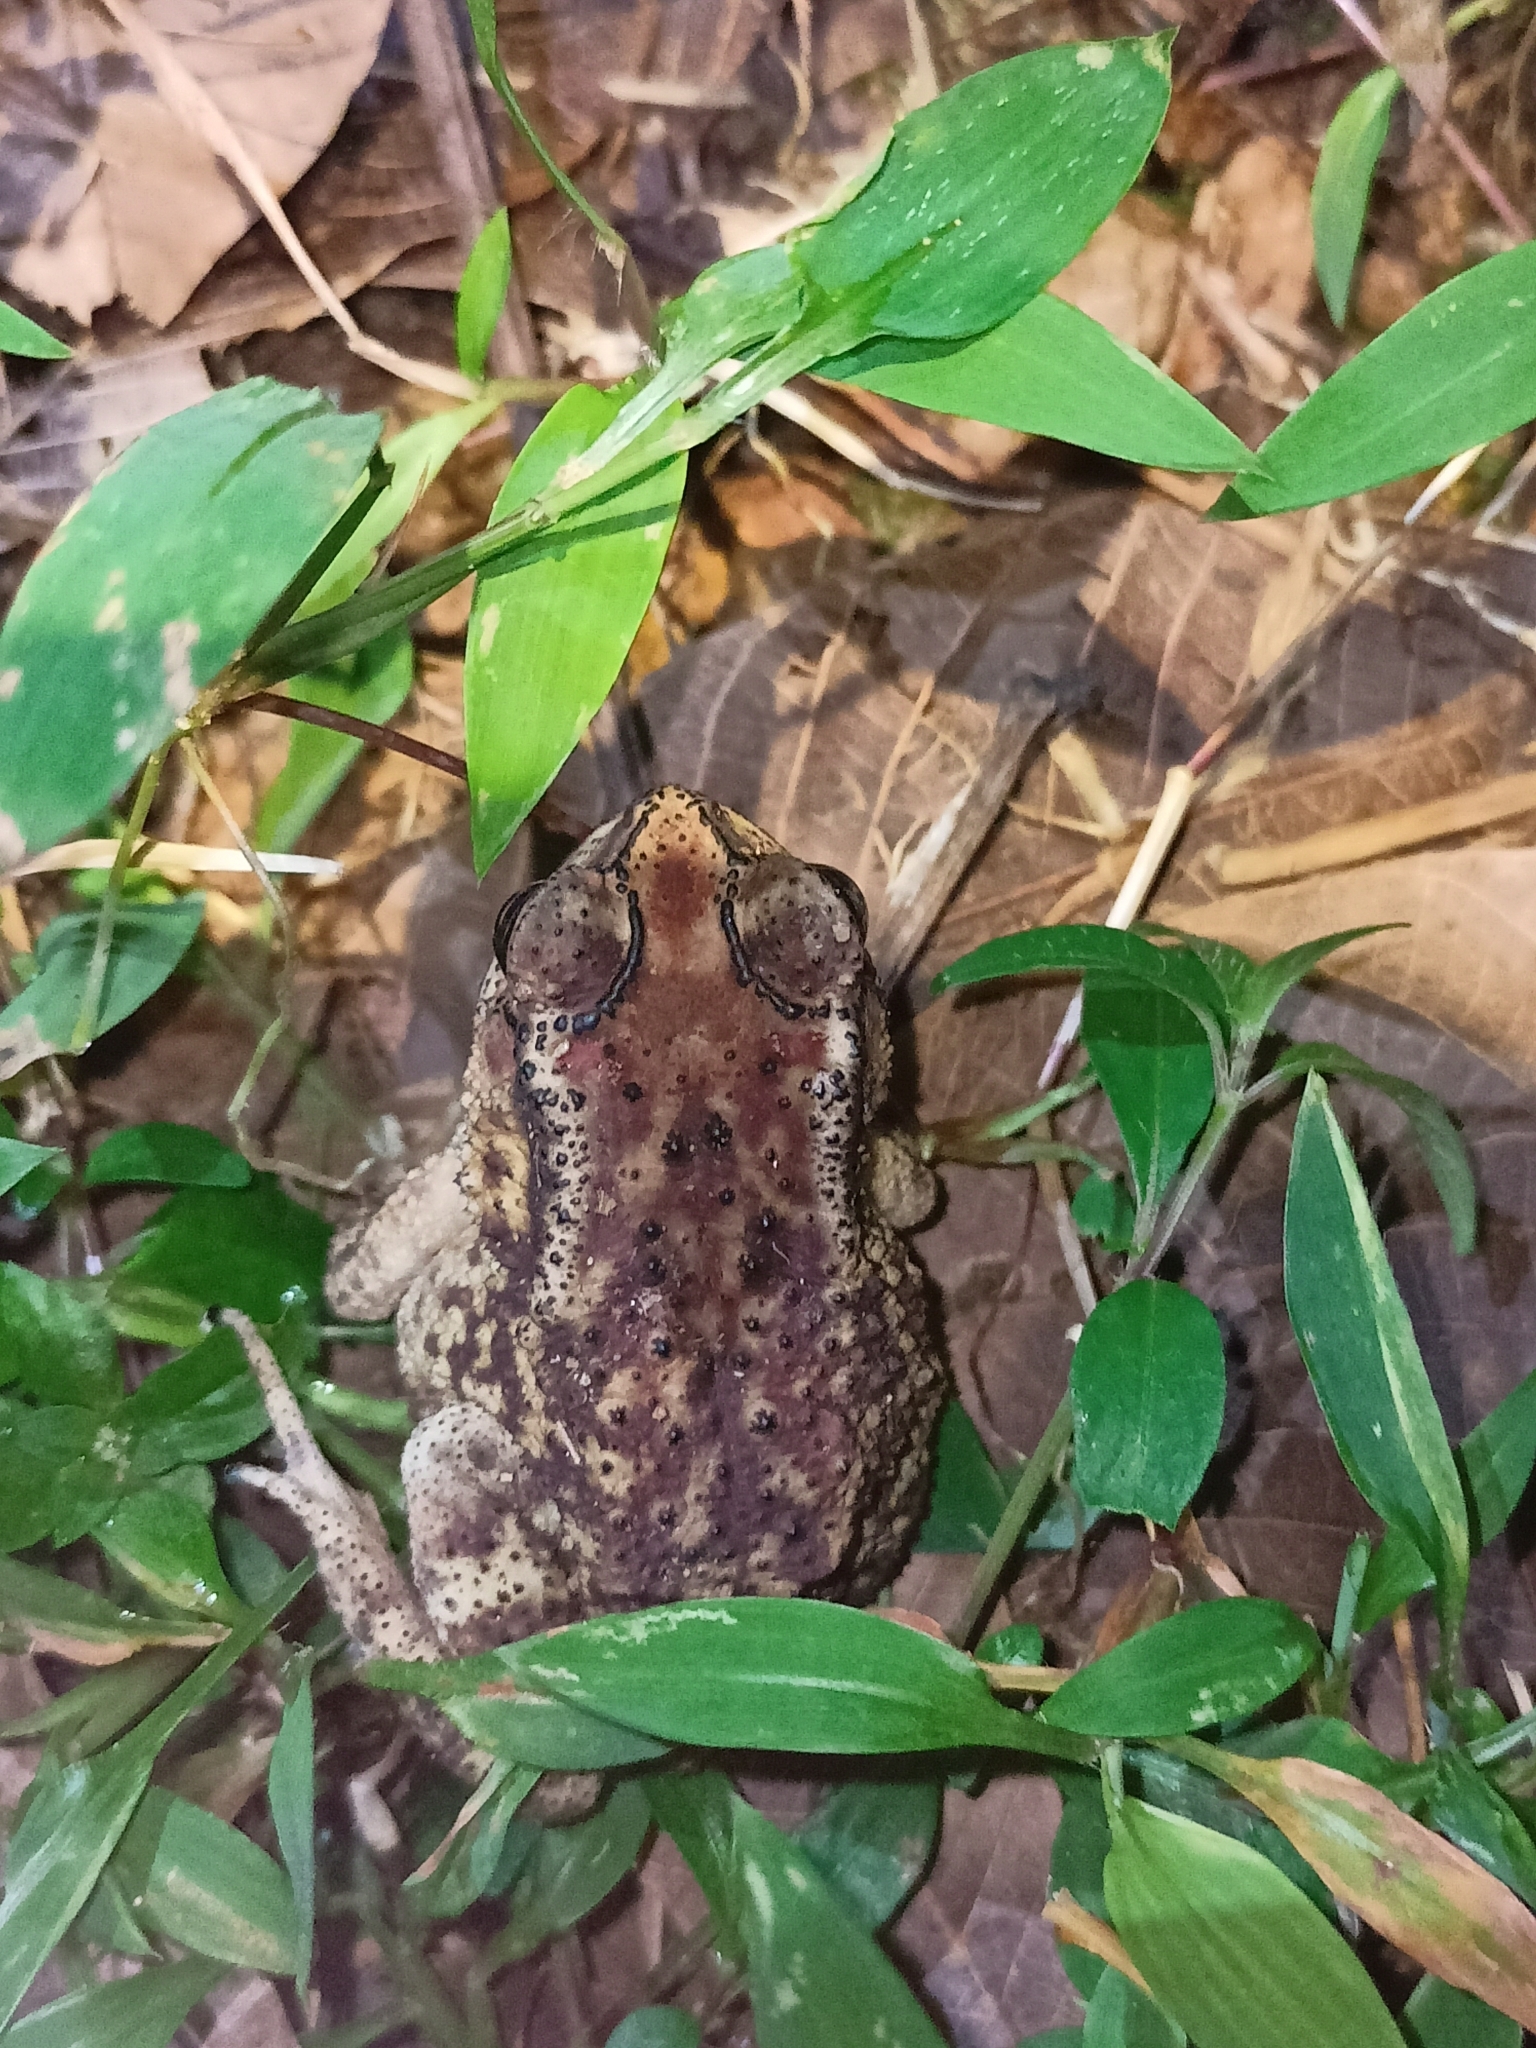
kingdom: Animalia
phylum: Chordata
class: Amphibia
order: Anura
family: Bufonidae
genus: Duttaphrynus
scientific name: Duttaphrynus melanostictus
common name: Common sunda toad
